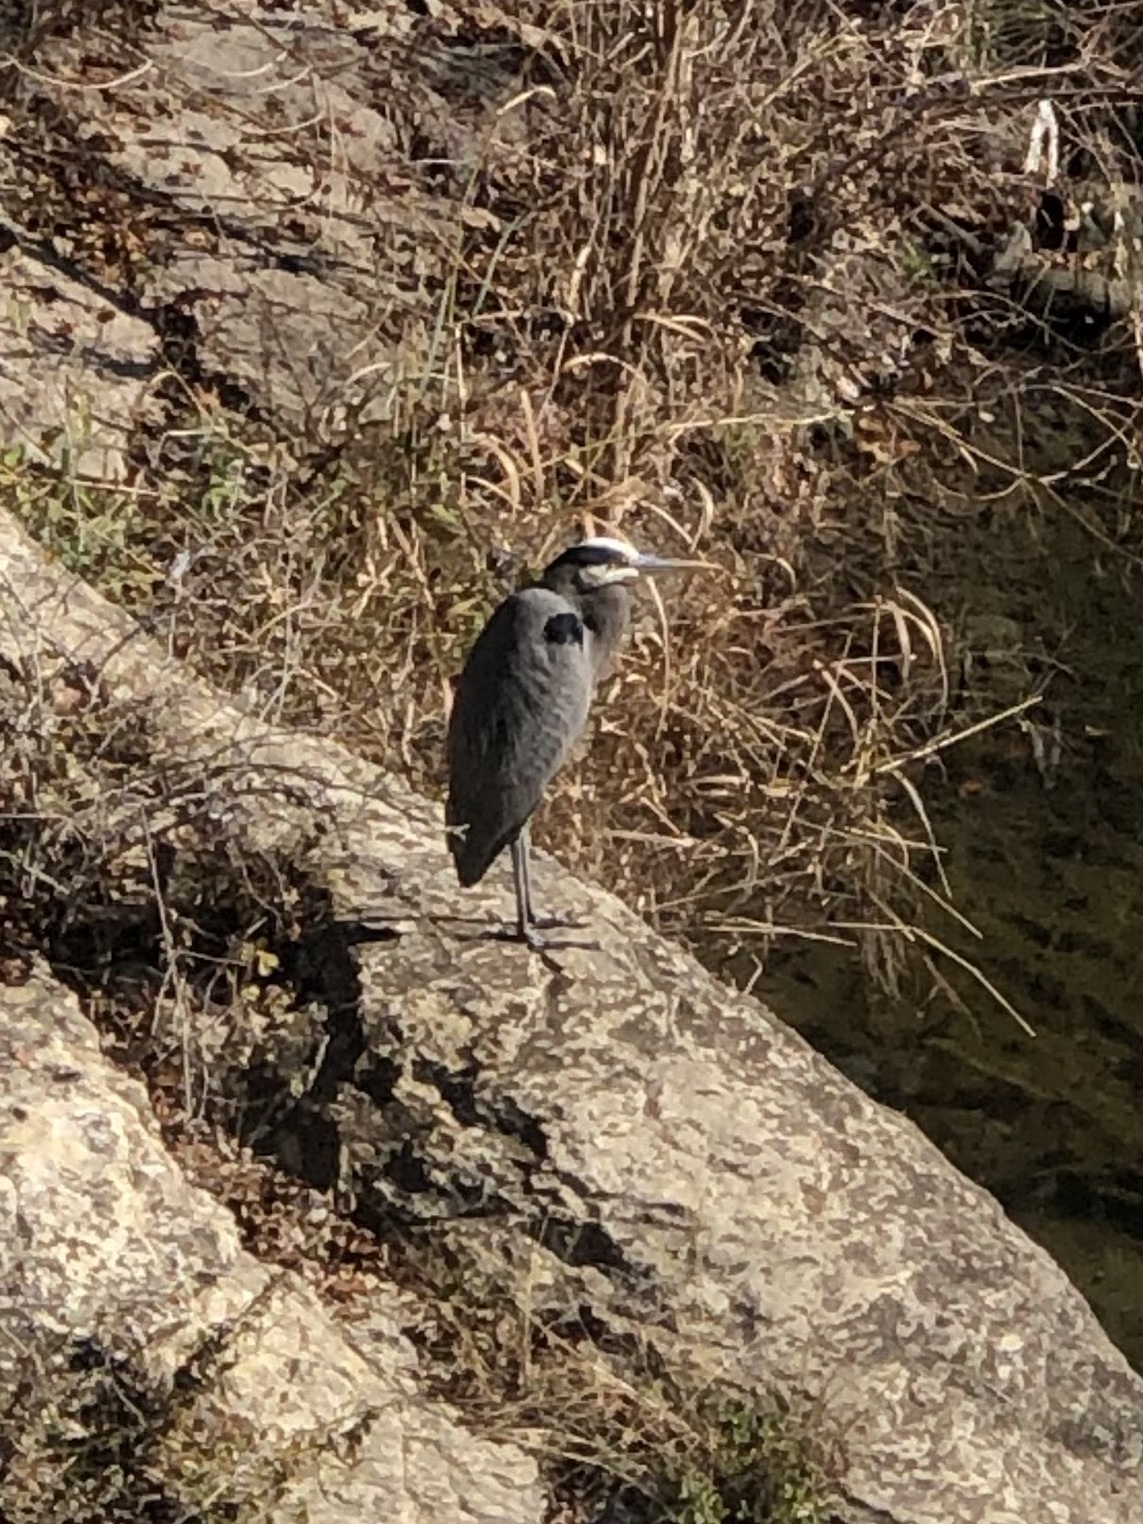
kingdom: Animalia
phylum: Chordata
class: Aves
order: Pelecaniformes
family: Ardeidae
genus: Ardea
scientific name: Ardea herodias
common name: Great blue heron
